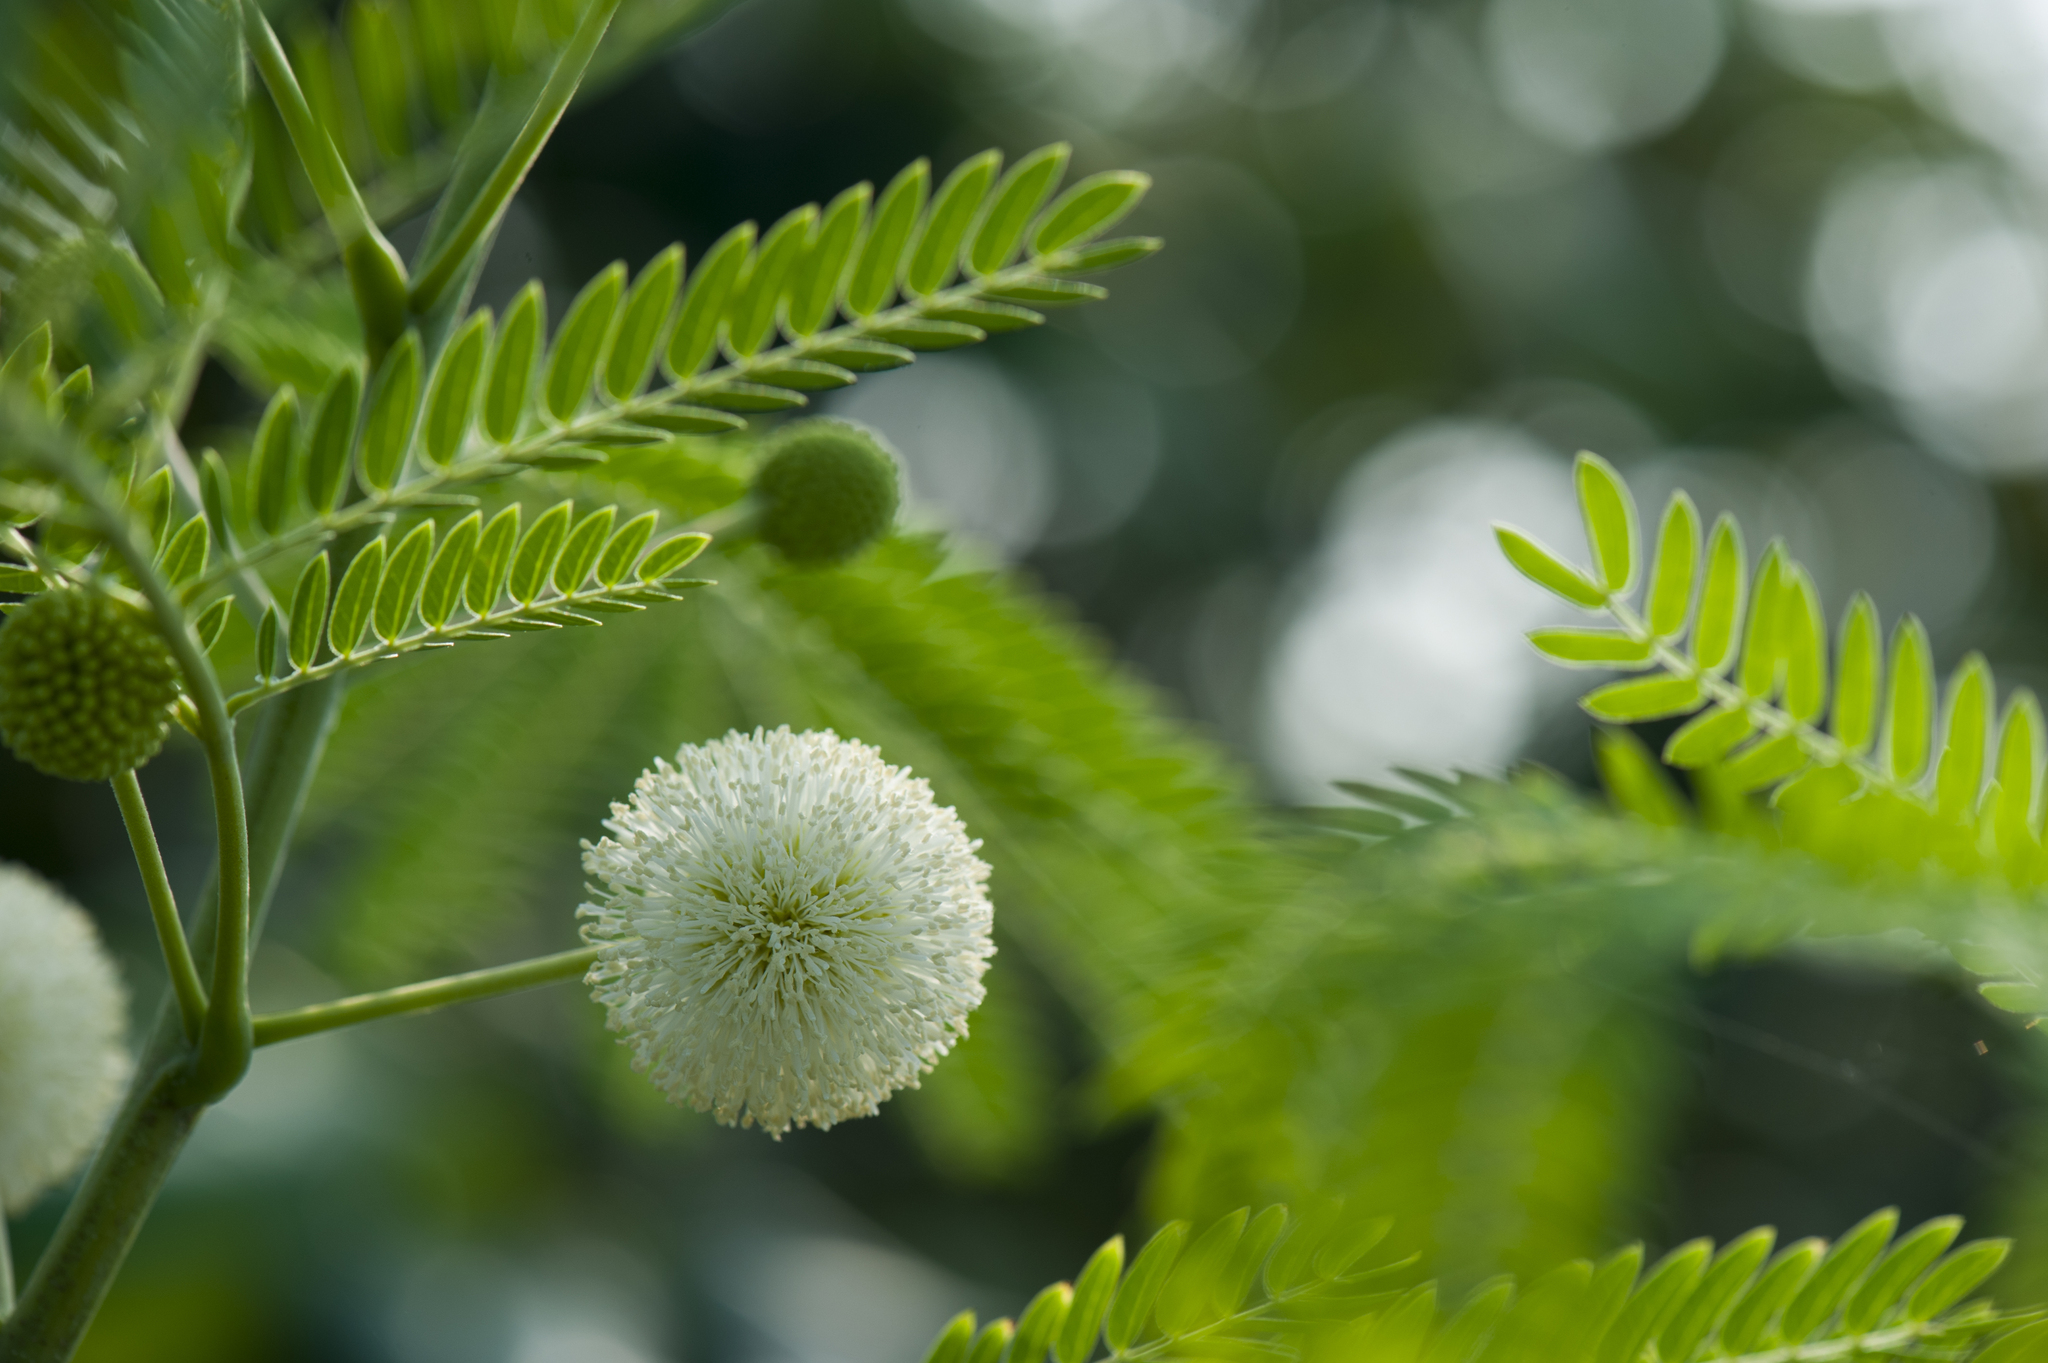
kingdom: Plantae
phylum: Tracheophyta
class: Magnoliopsida
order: Fabales
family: Fabaceae
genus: Leucaena
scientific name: Leucaena leucocephala
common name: White leadtree
